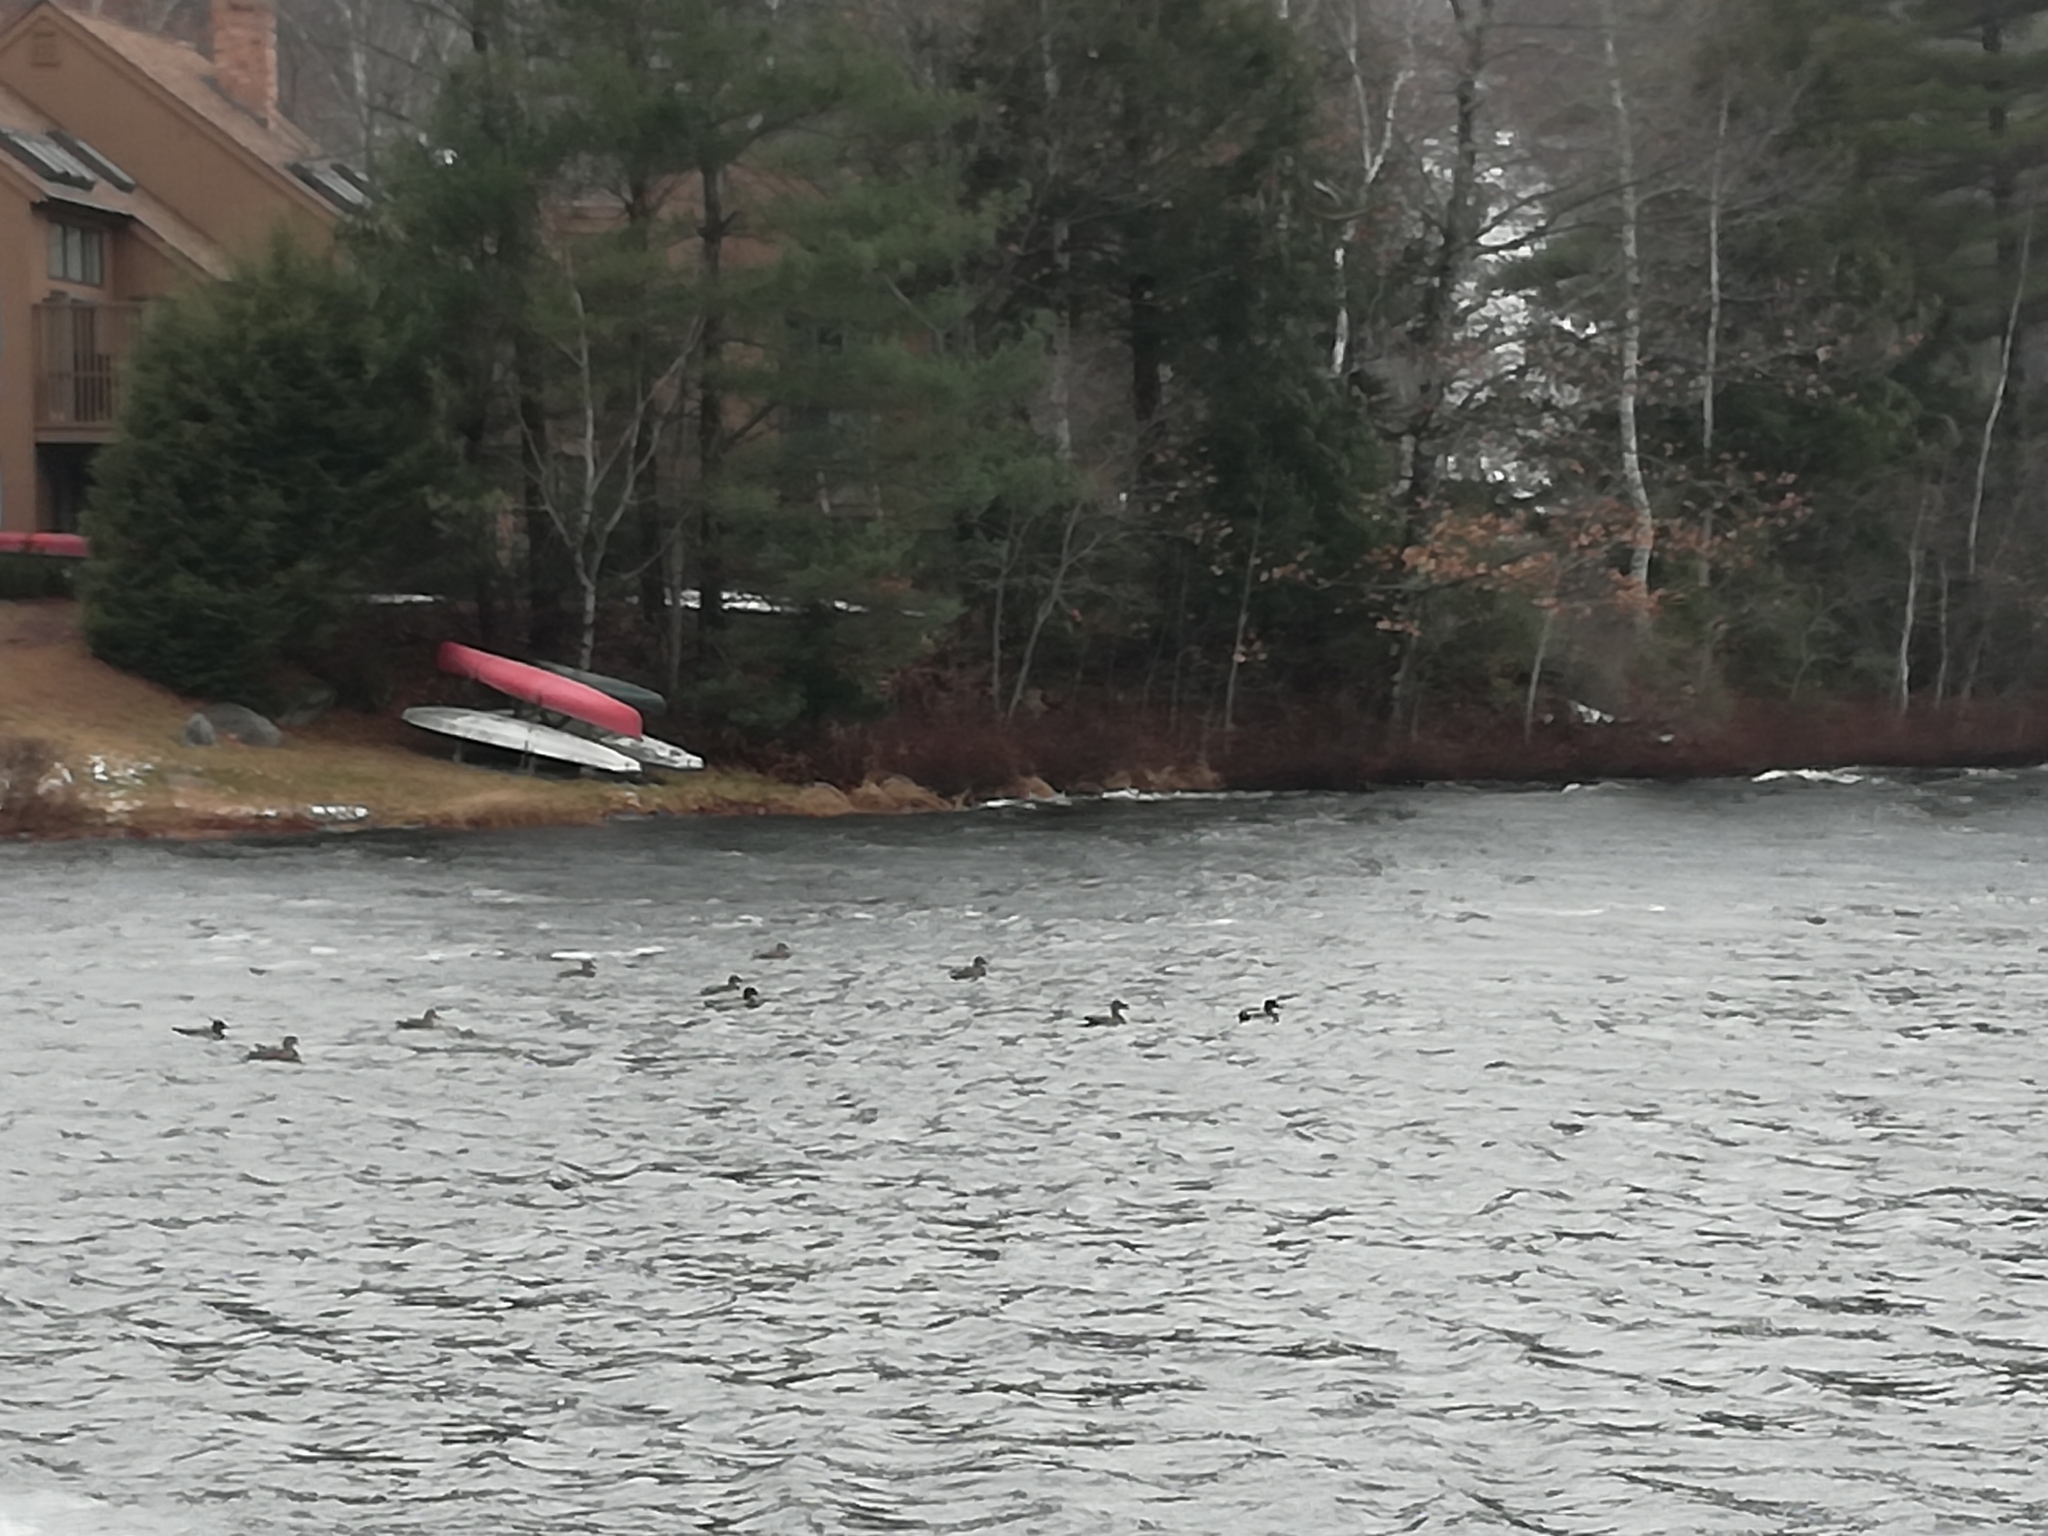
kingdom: Animalia
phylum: Chordata
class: Aves
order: Anseriformes
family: Anatidae
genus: Anas
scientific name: Anas platyrhynchos
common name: Mallard
